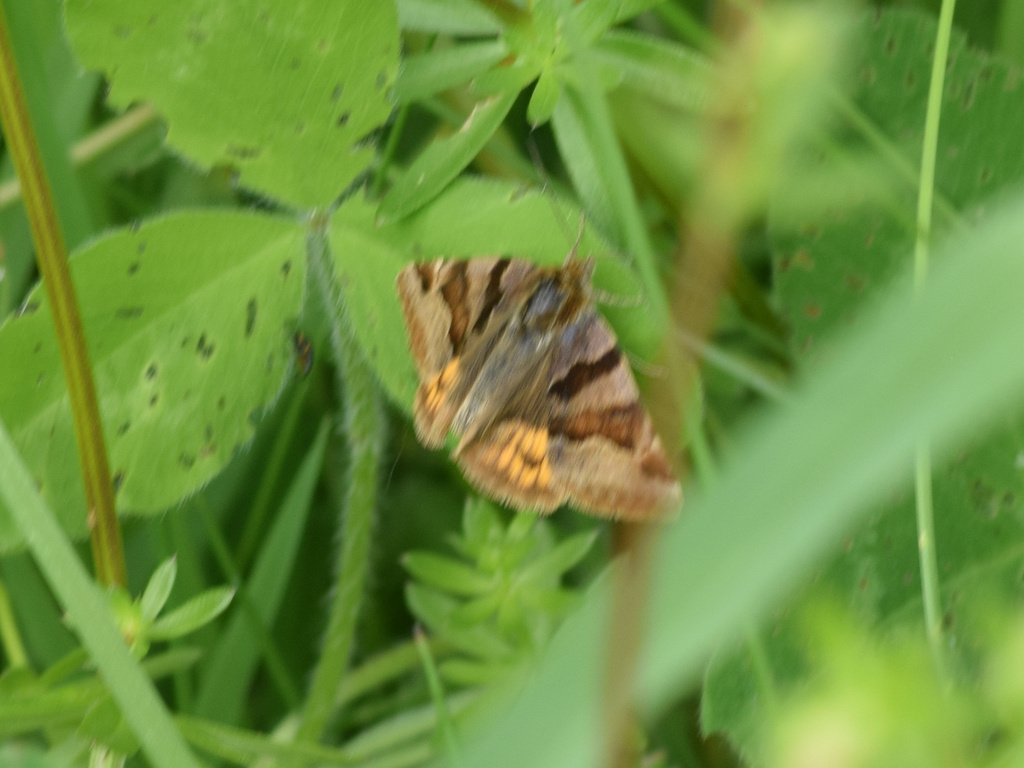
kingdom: Animalia
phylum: Arthropoda
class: Insecta
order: Lepidoptera
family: Erebidae
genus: Euclidia
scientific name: Euclidia glyphica
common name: Burnet companion
